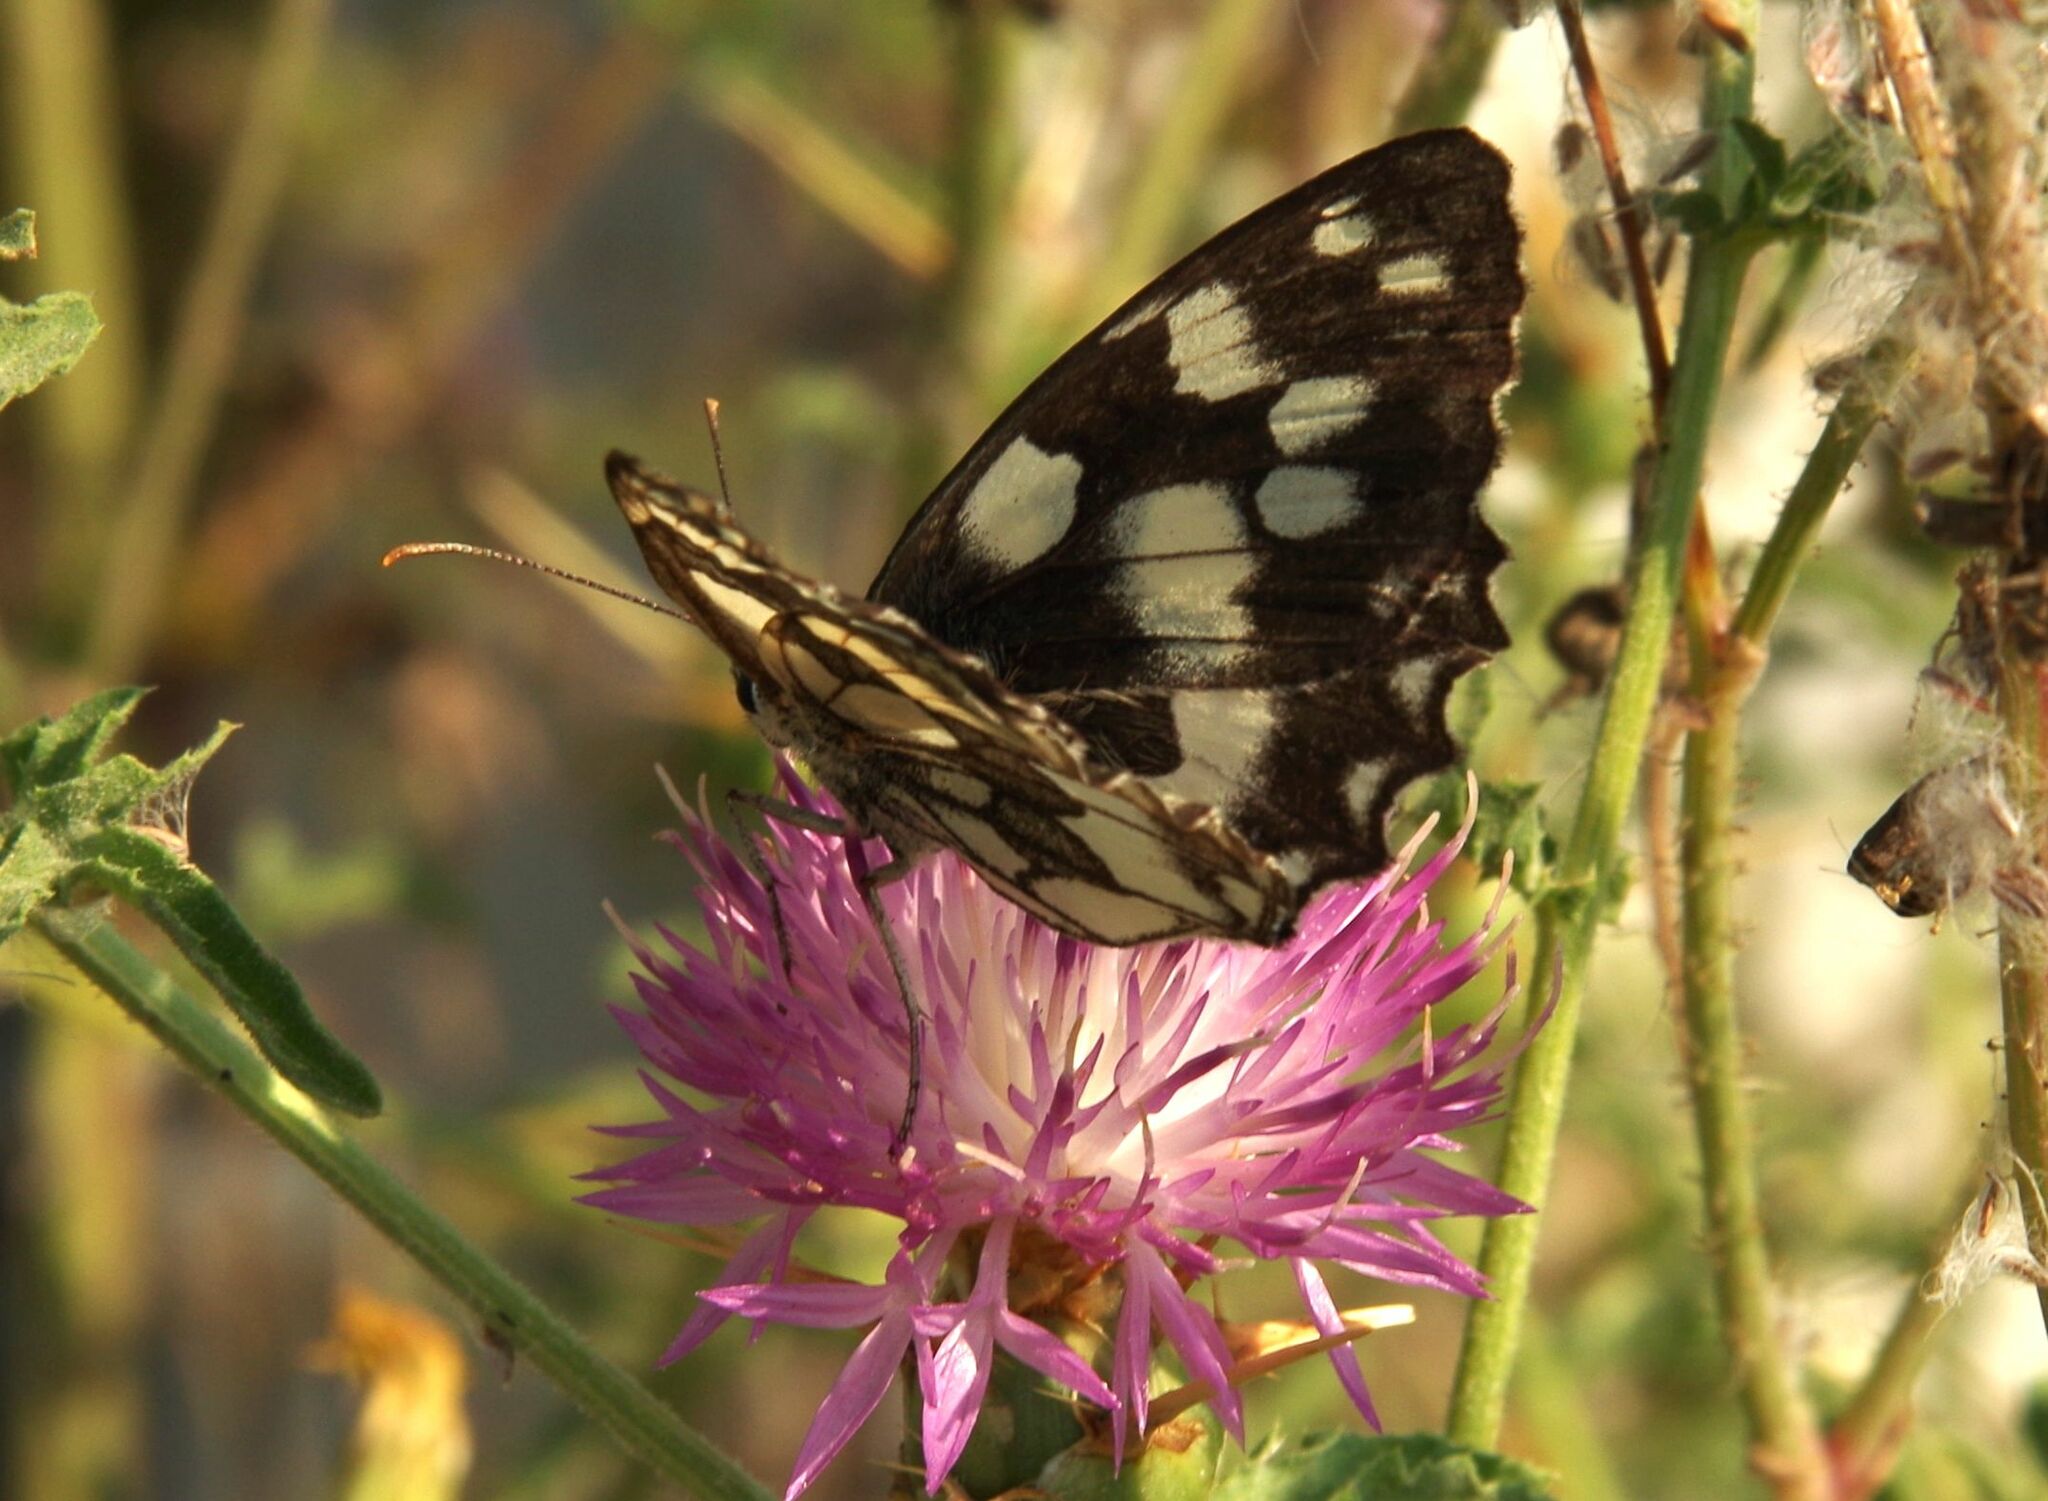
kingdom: Animalia
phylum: Arthropoda
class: Insecta
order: Lepidoptera
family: Nymphalidae
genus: Melanargia
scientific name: Melanargia galathea
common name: Marbled white
